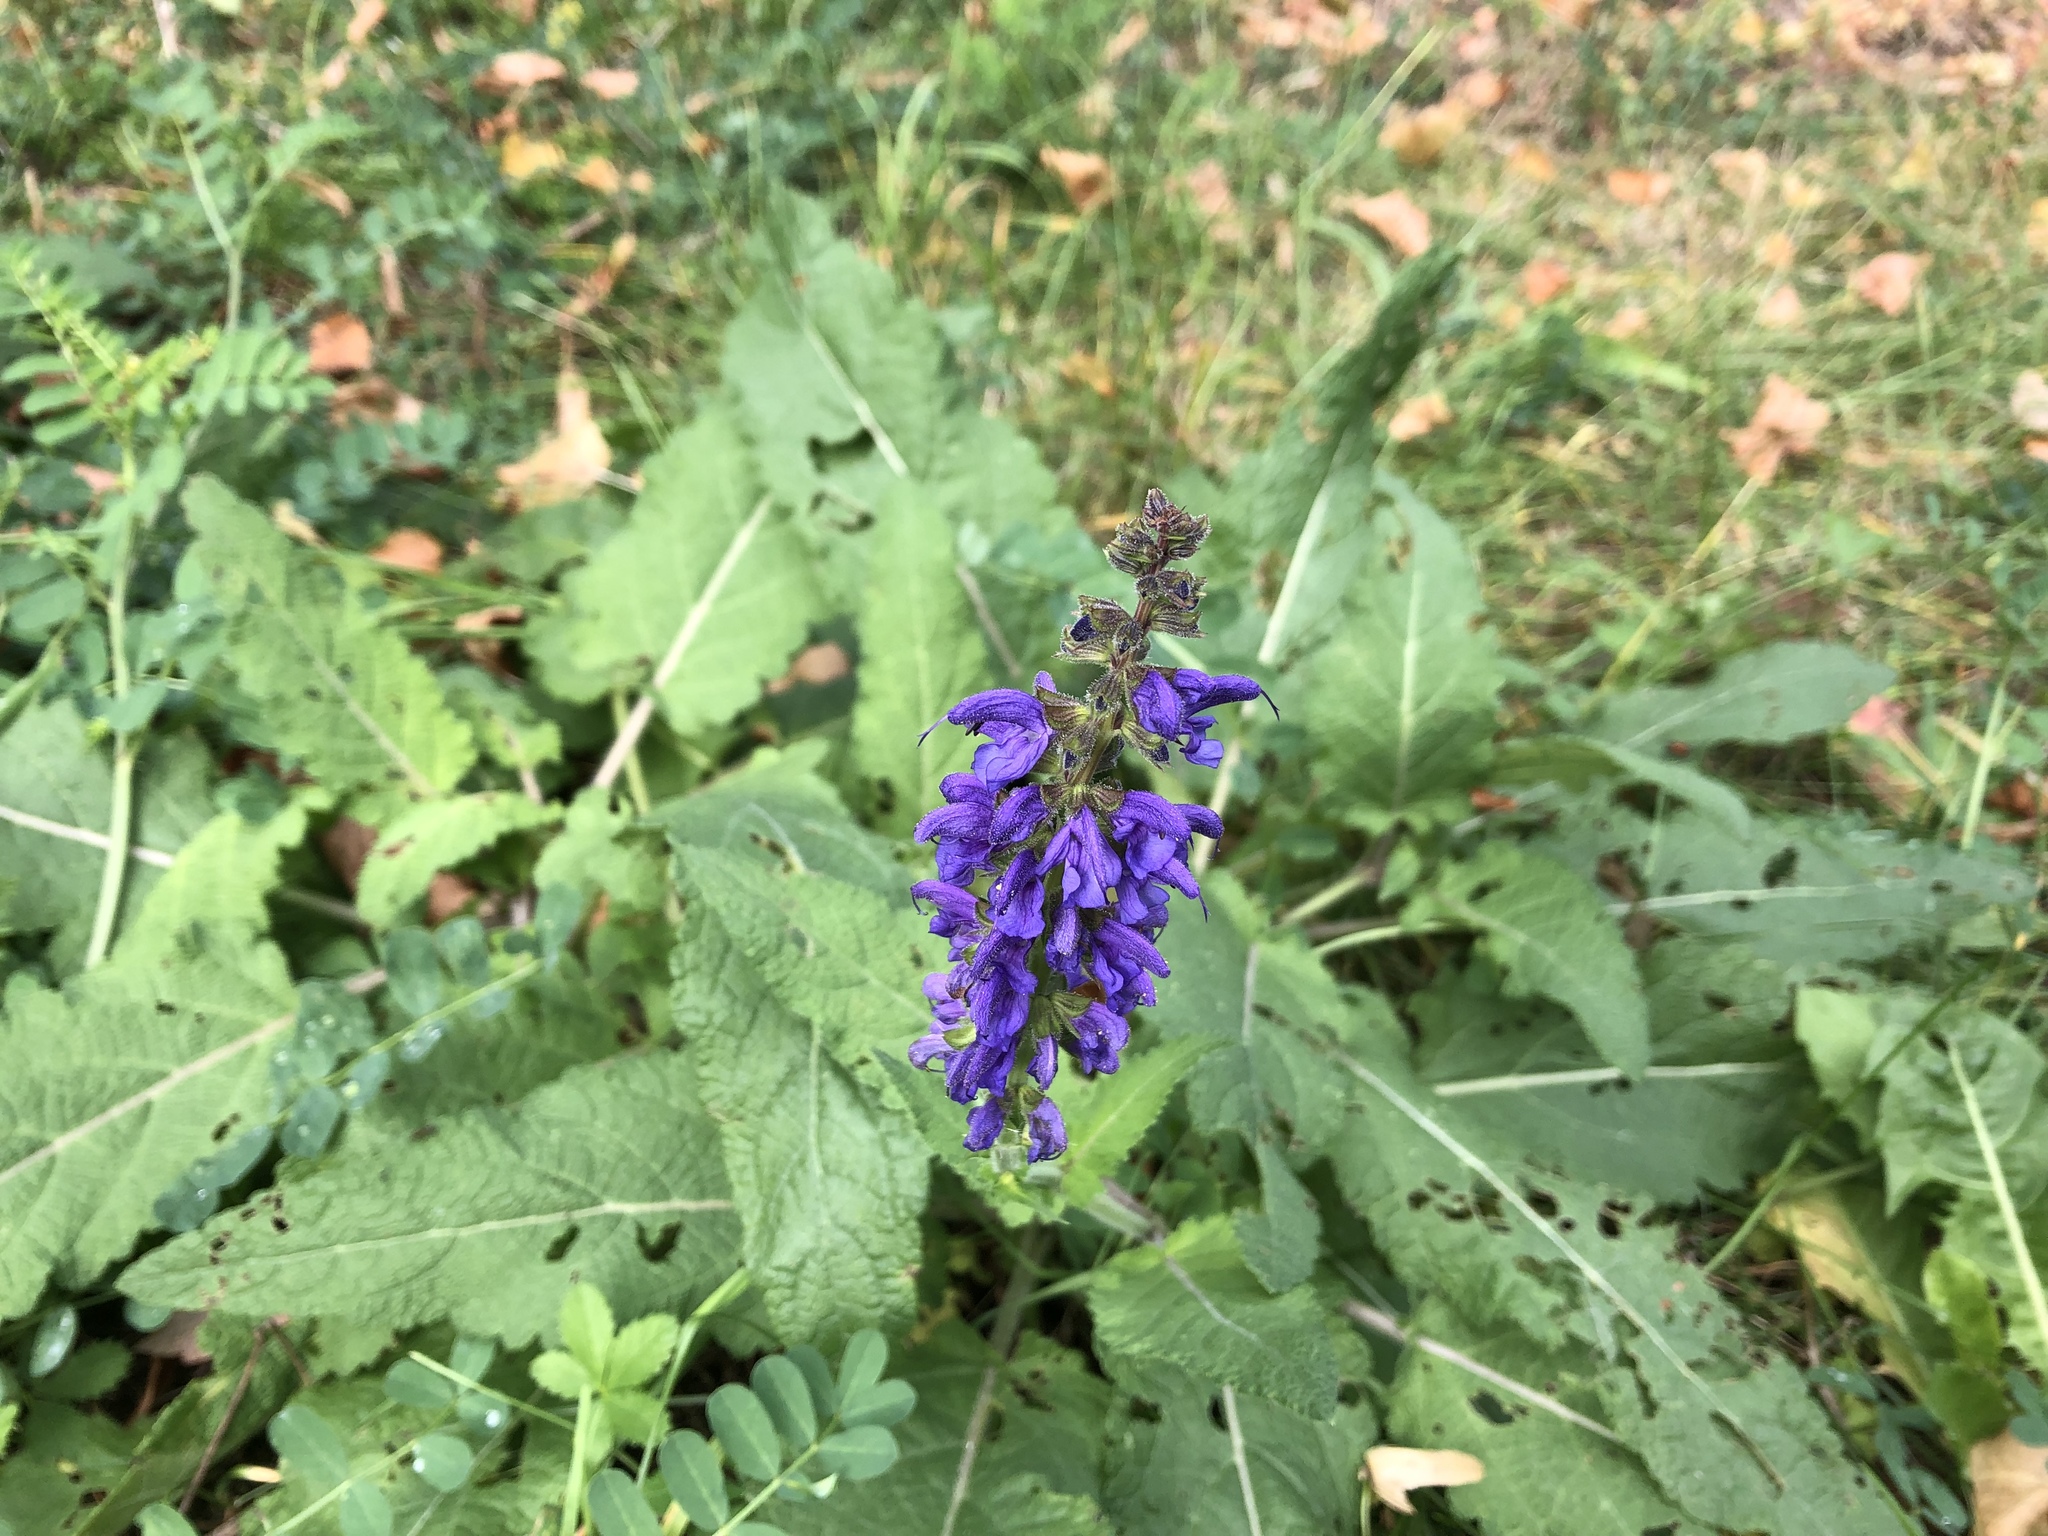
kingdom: Plantae
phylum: Tracheophyta
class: Magnoliopsida
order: Lamiales
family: Lamiaceae
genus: Salvia
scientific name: Salvia pratensis
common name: Meadow sage
